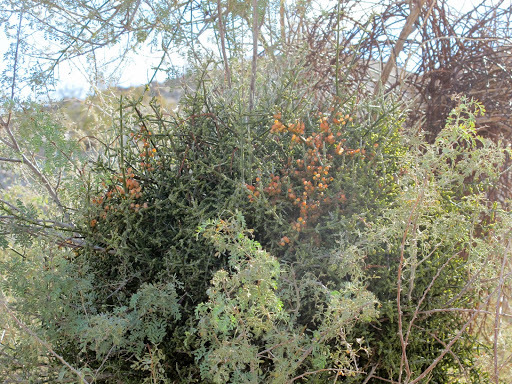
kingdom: Plantae
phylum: Tracheophyta
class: Magnoliopsida
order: Santalales
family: Viscaceae
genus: Phoradendron
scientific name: Phoradendron californicum
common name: Acacia mistletoe
